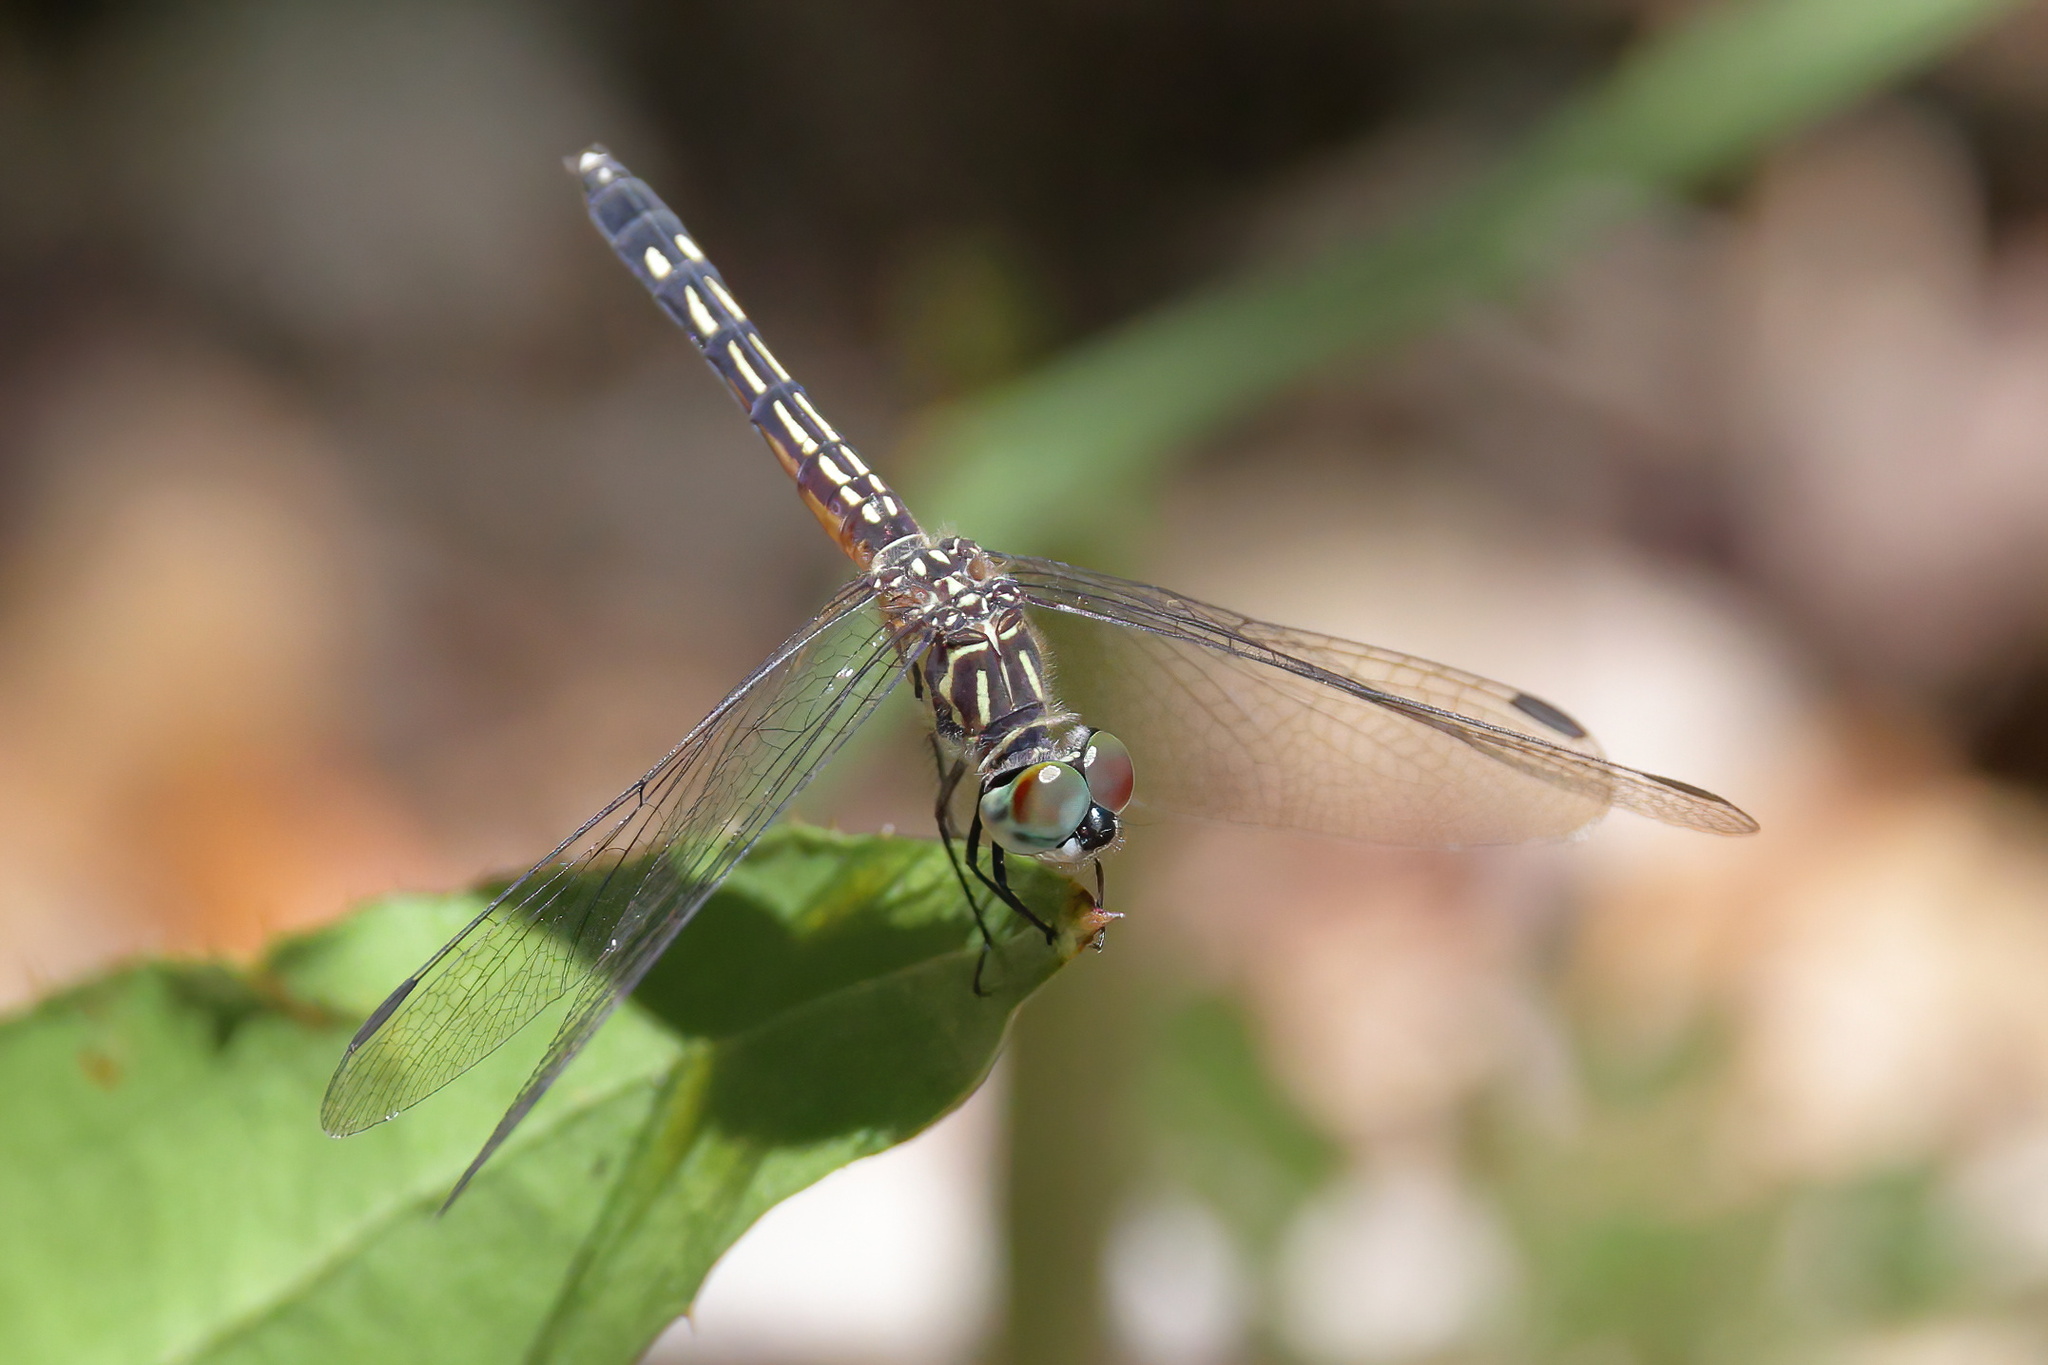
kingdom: Animalia
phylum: Arthropoda
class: Insecta
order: Odonata
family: Libellulidae
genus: Pachydiplax
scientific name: Pachydiplax longipennis
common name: Blue dasher
